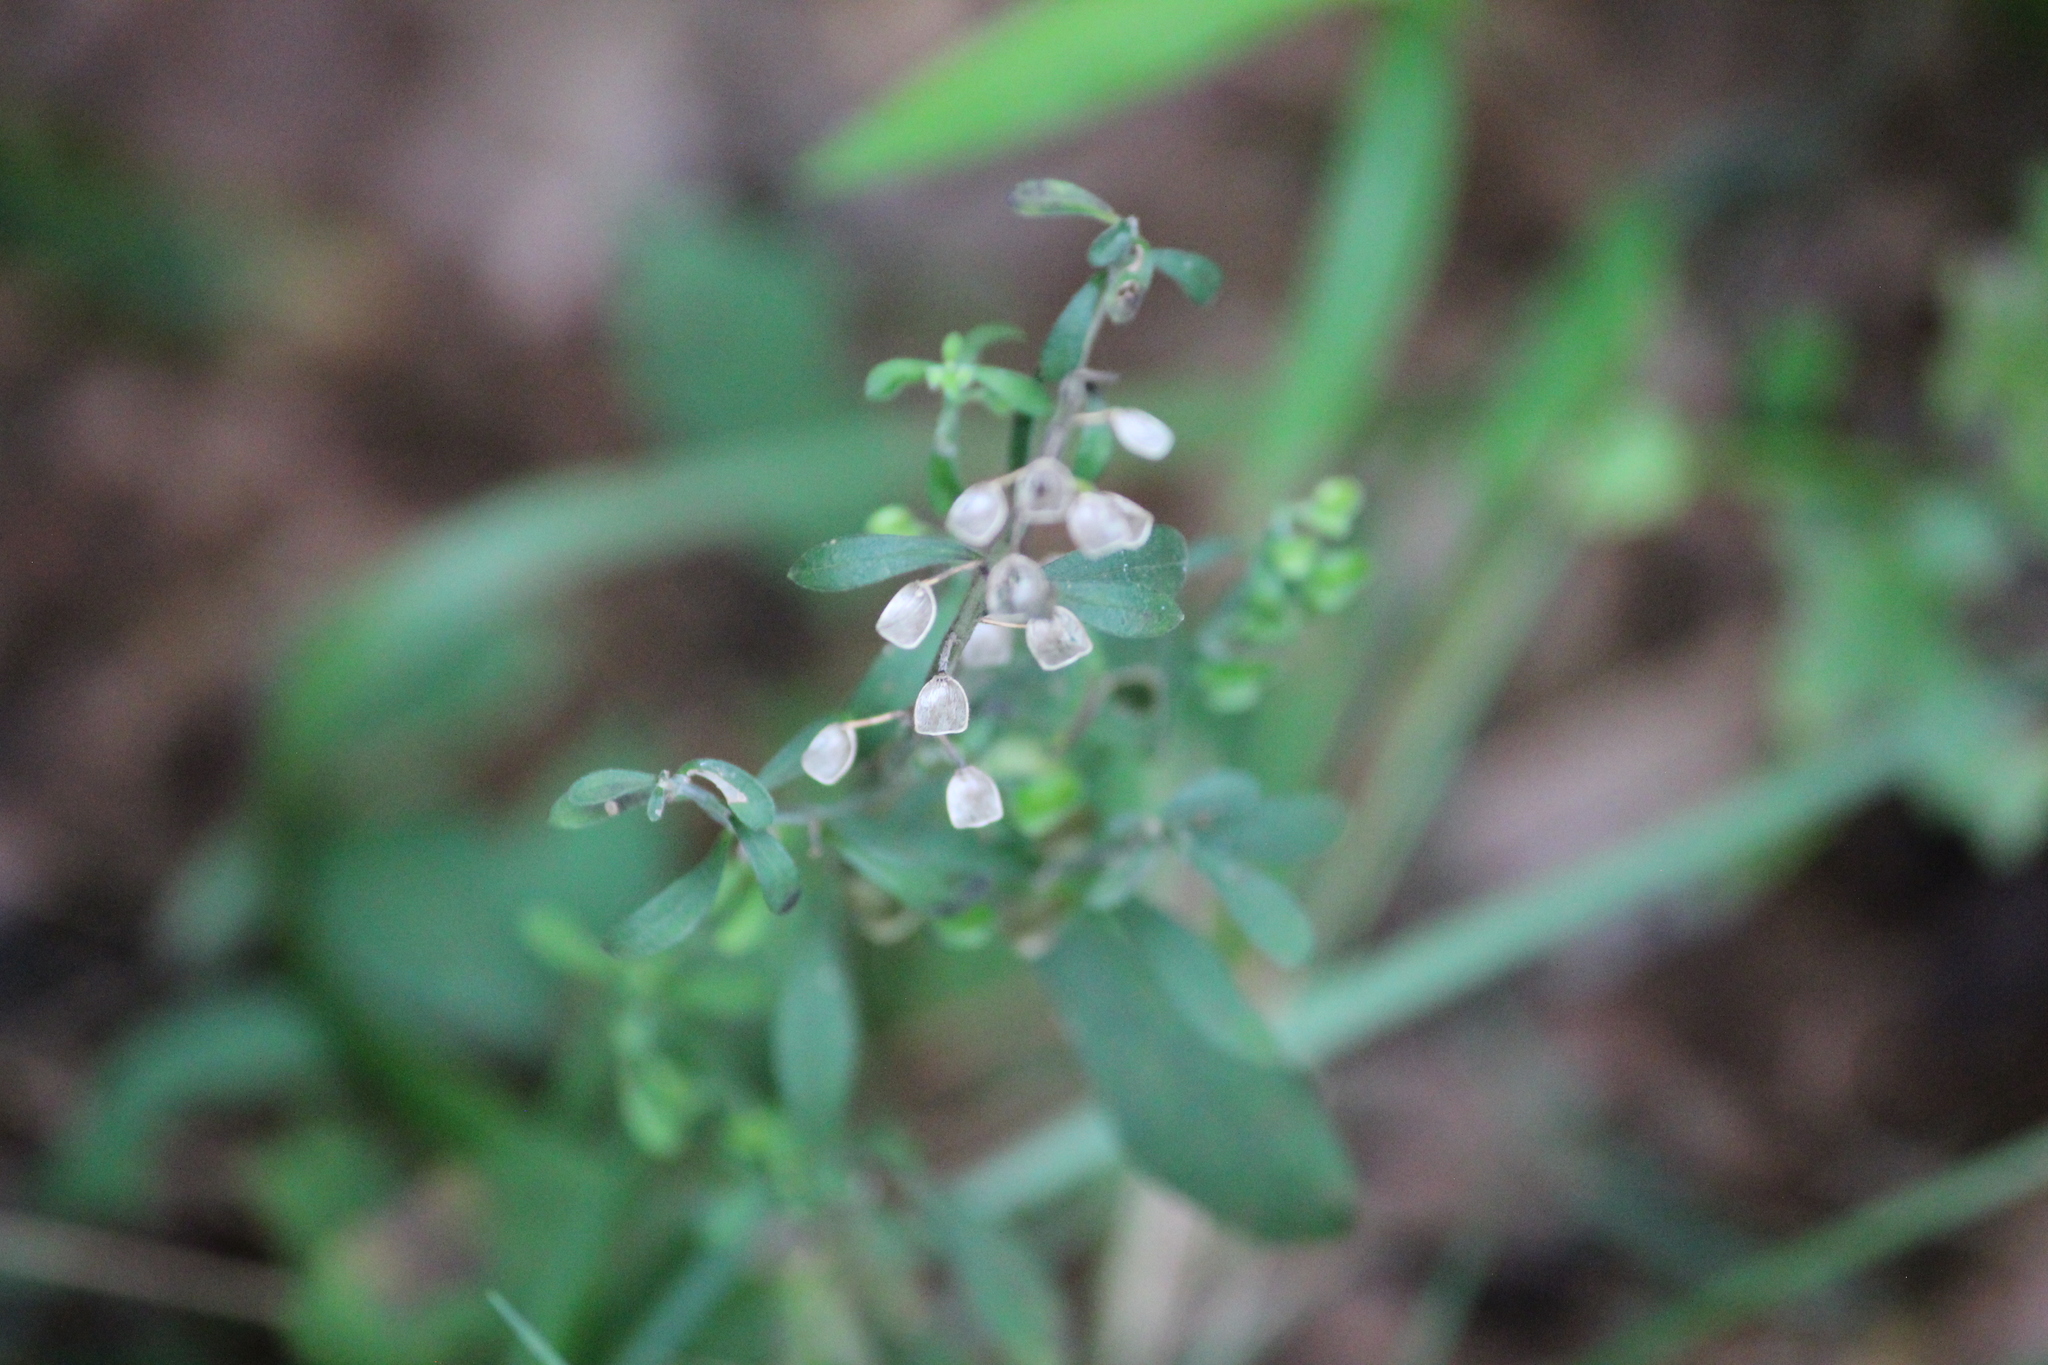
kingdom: Plantae
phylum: Tracheophyta
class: Magnoliopsida
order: Lamiales
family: Lamiaceae
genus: Scutellaria
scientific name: Scutellaria integrifolia
